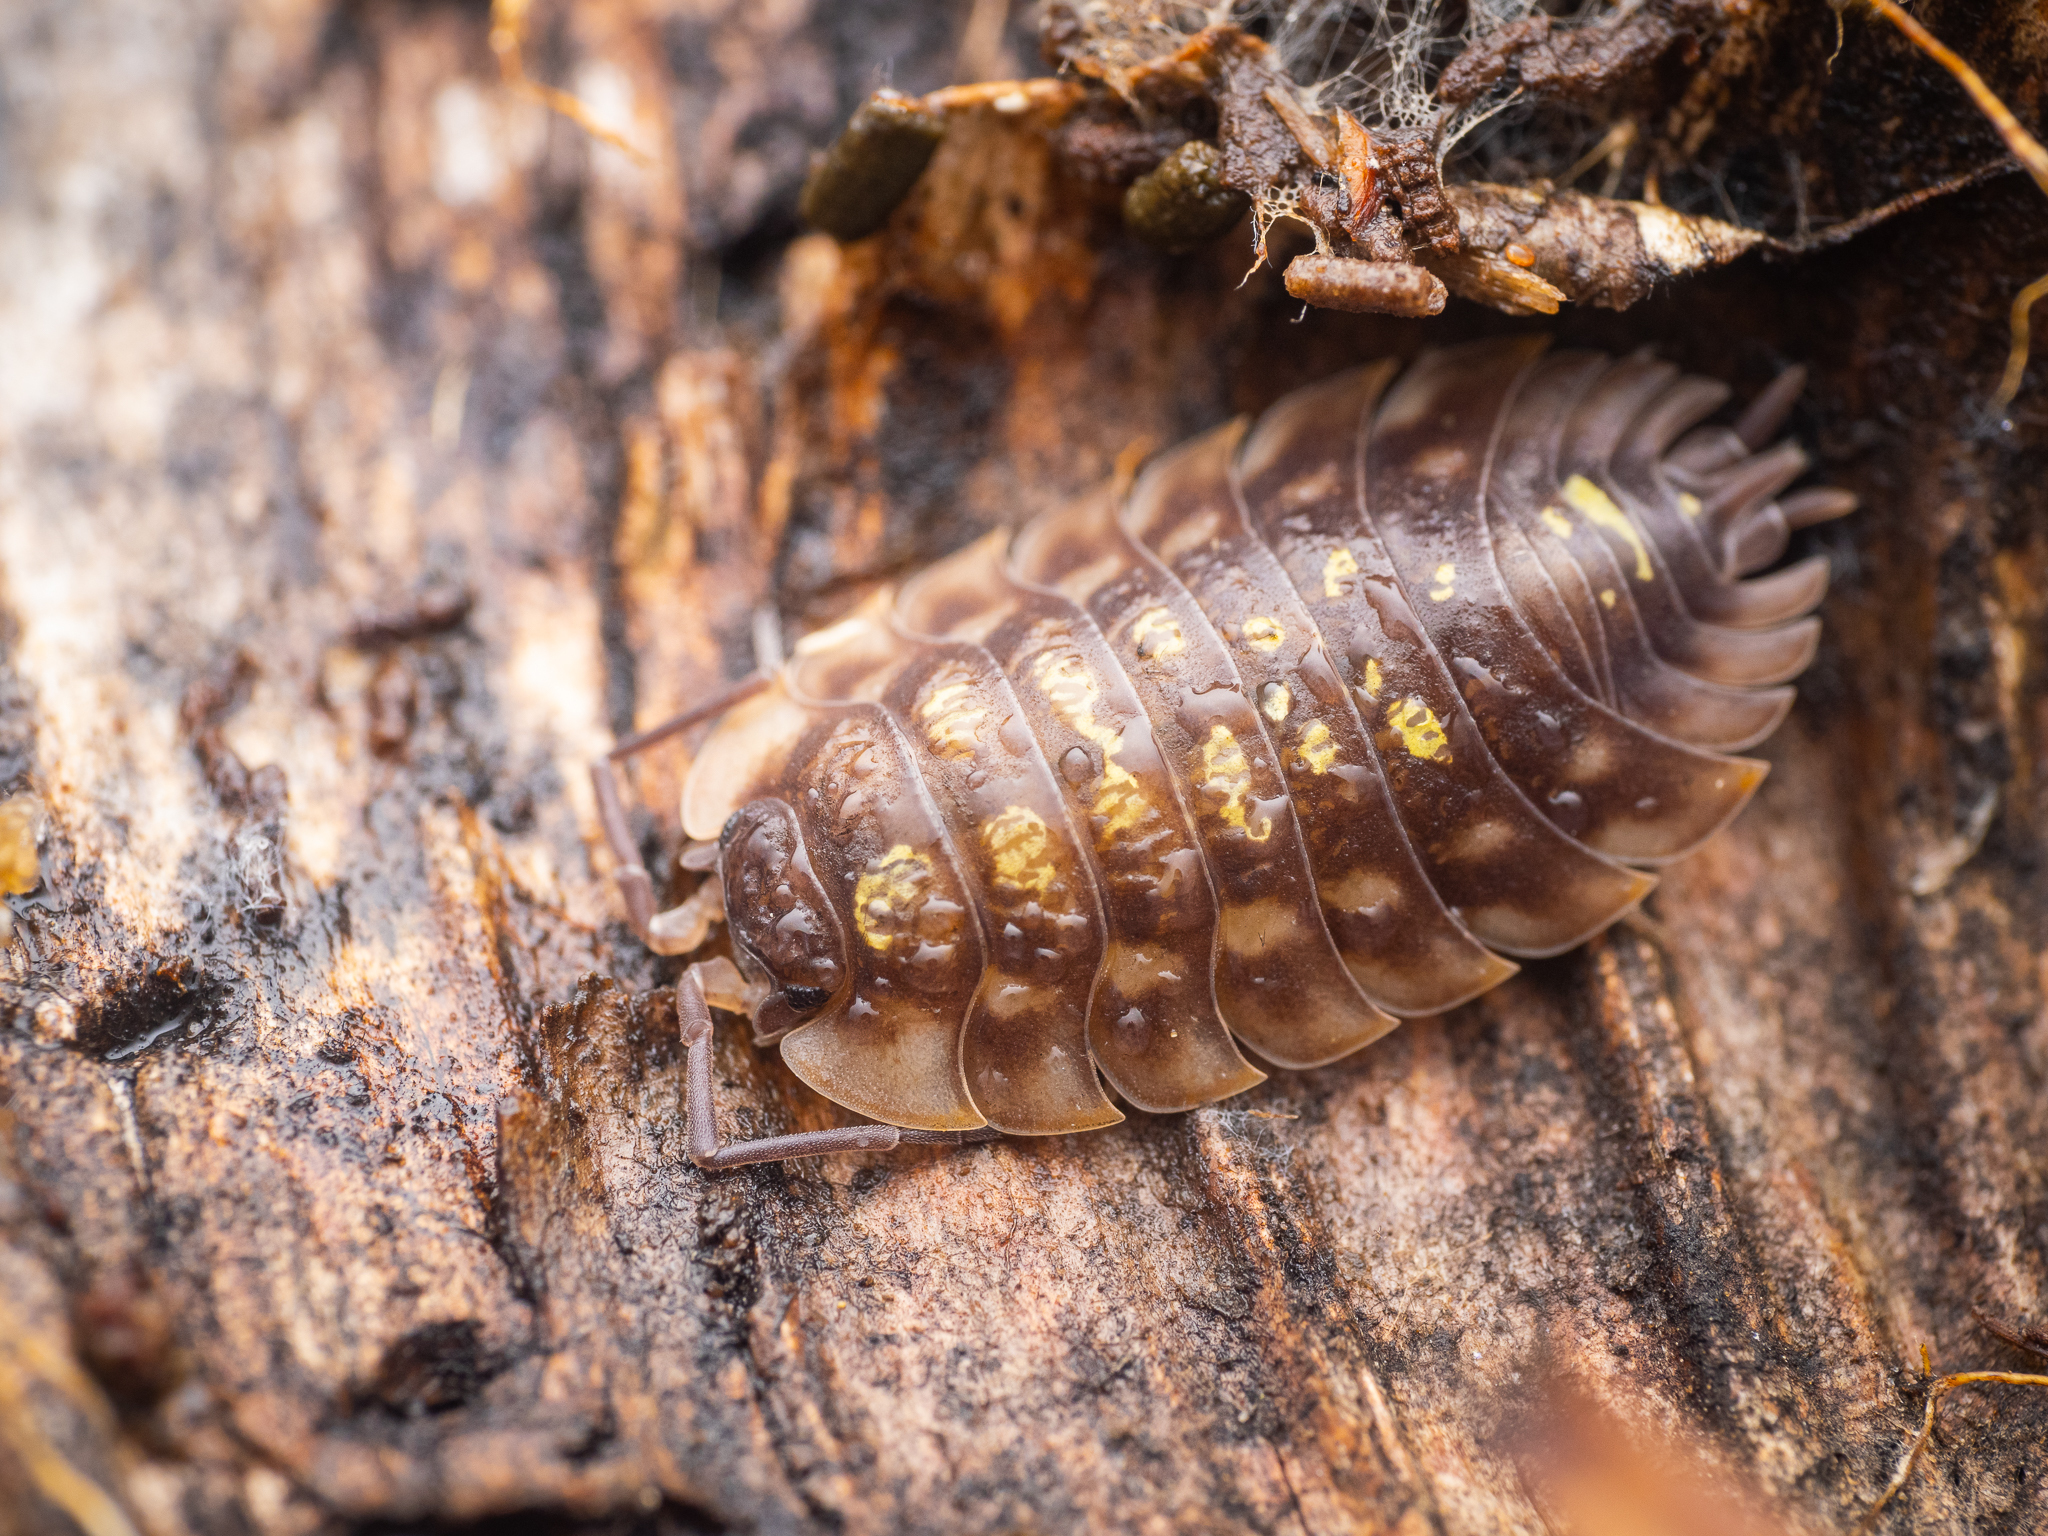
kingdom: Animalia
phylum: Arthropoda
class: Malacostraca
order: Isopoda
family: Oniscidae
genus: Oniscus
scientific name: Oniscus asellus
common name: Common shiny woodlouse
